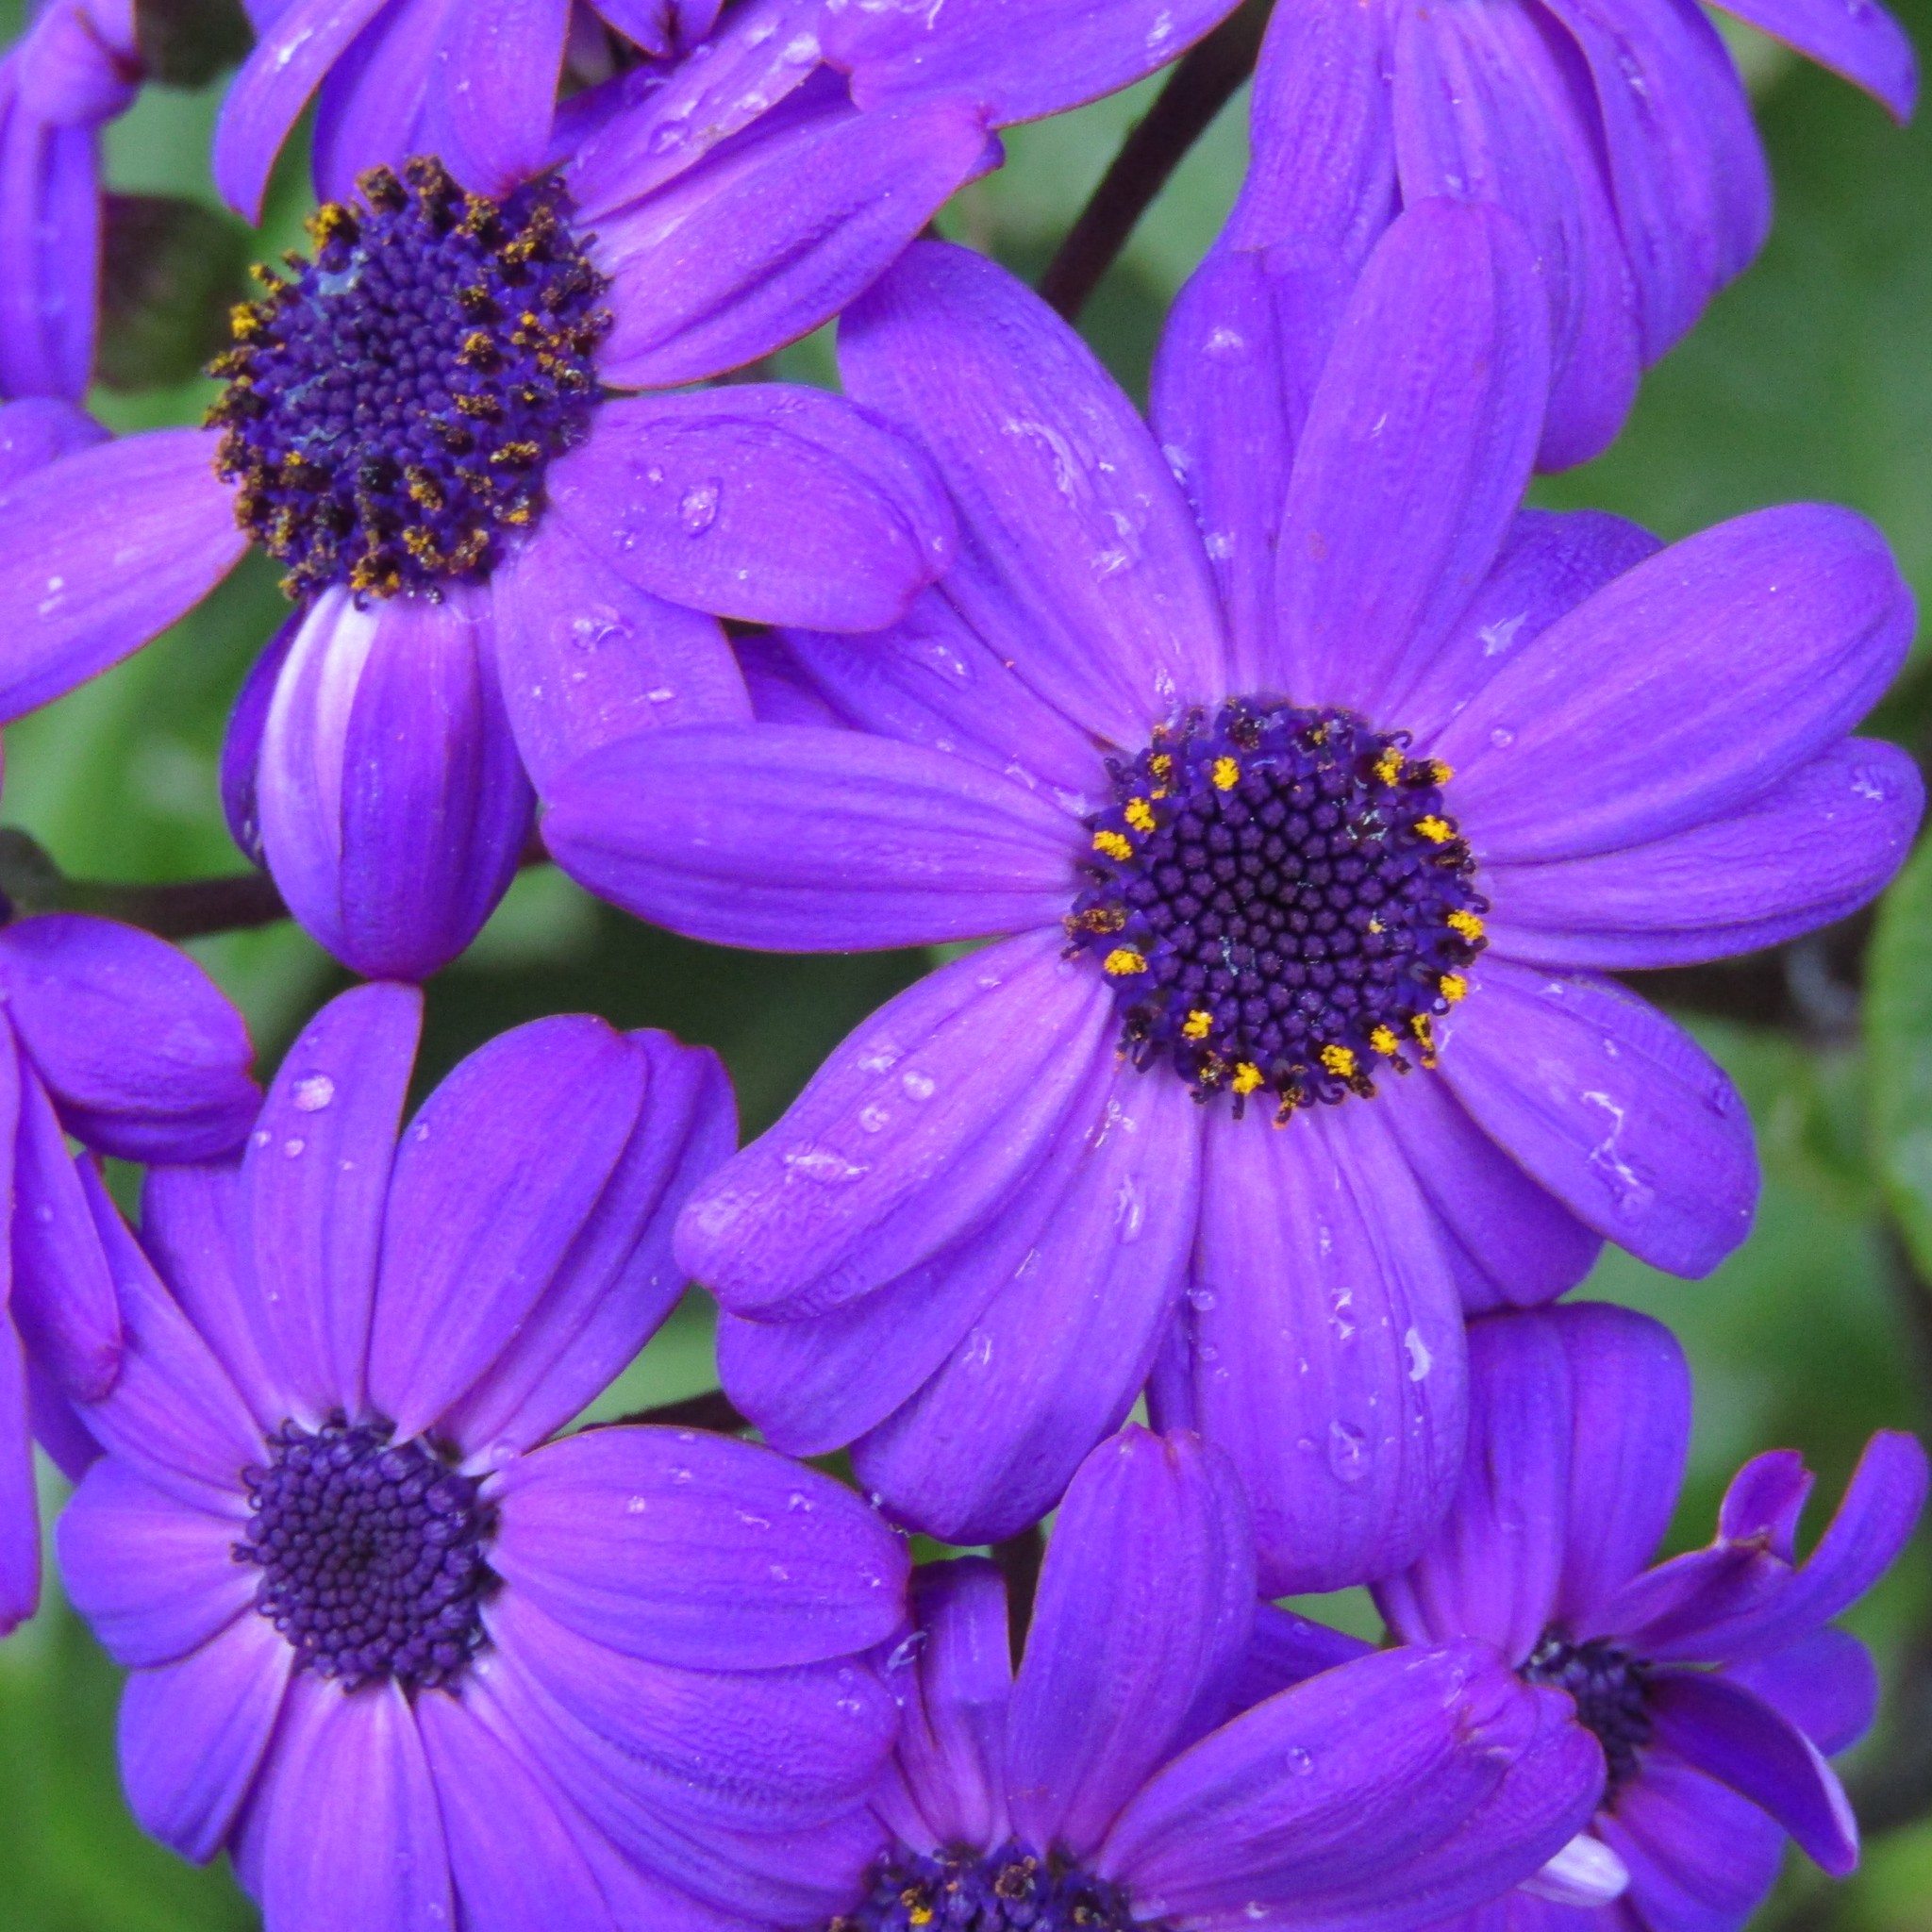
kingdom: Plantae
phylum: Tracheophyta
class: Magnoliopsida
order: Asterales
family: Asteraceae
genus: Pericallis
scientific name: Pericallis hybrida
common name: Cineraria
